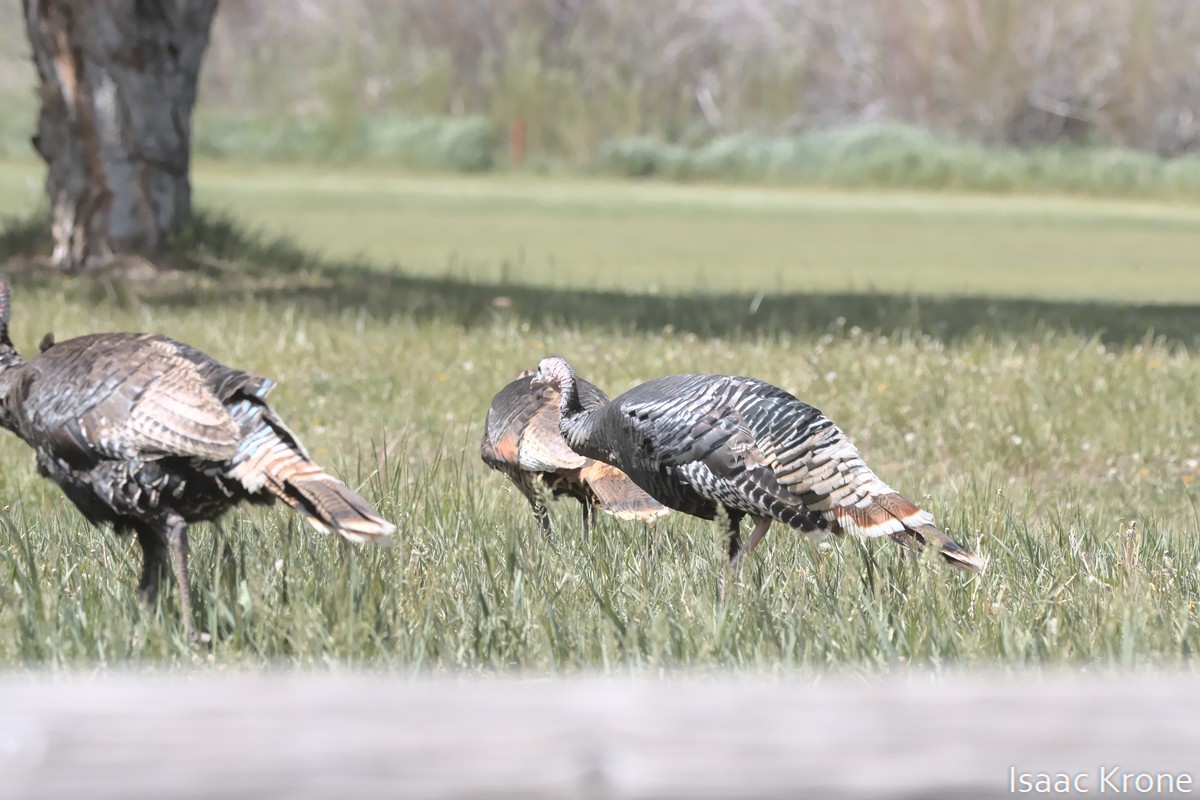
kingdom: Animalia
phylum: Chordata
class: Aves
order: Galliformes
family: Phasianidae
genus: Meleagris
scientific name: Meleagris gallopavo
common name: Wild turkey
